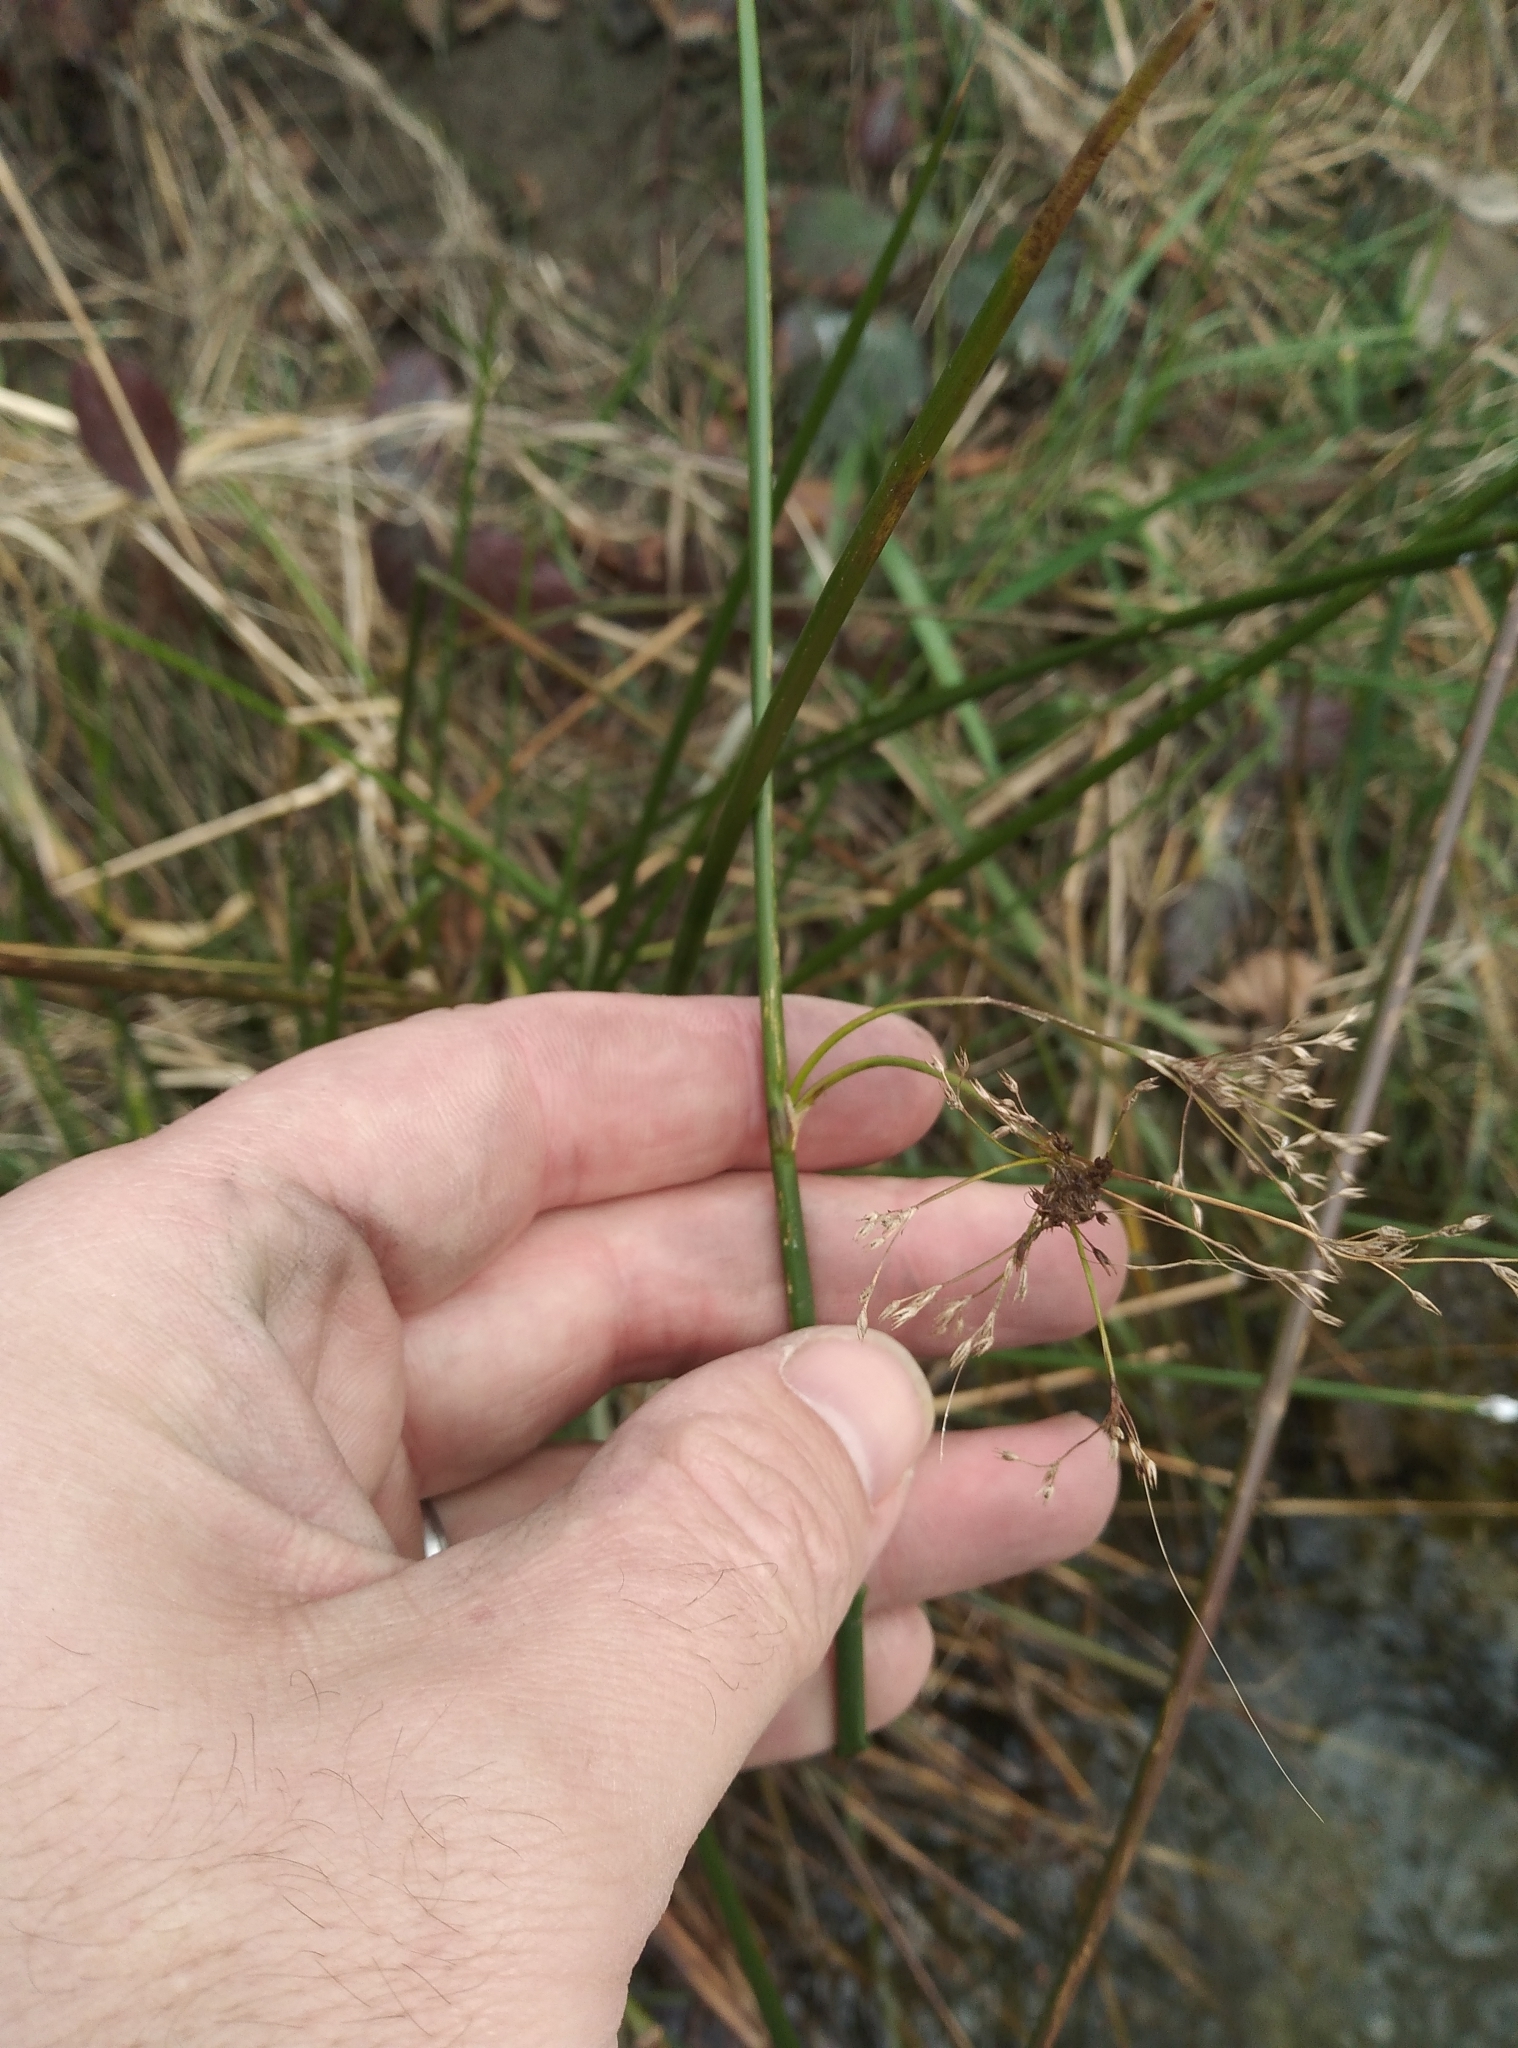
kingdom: Plantae
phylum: Tracheophyta
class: Liliopsida
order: Poales
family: Juncaceae
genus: Juncus
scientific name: Juncus effusus
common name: Soft rush
